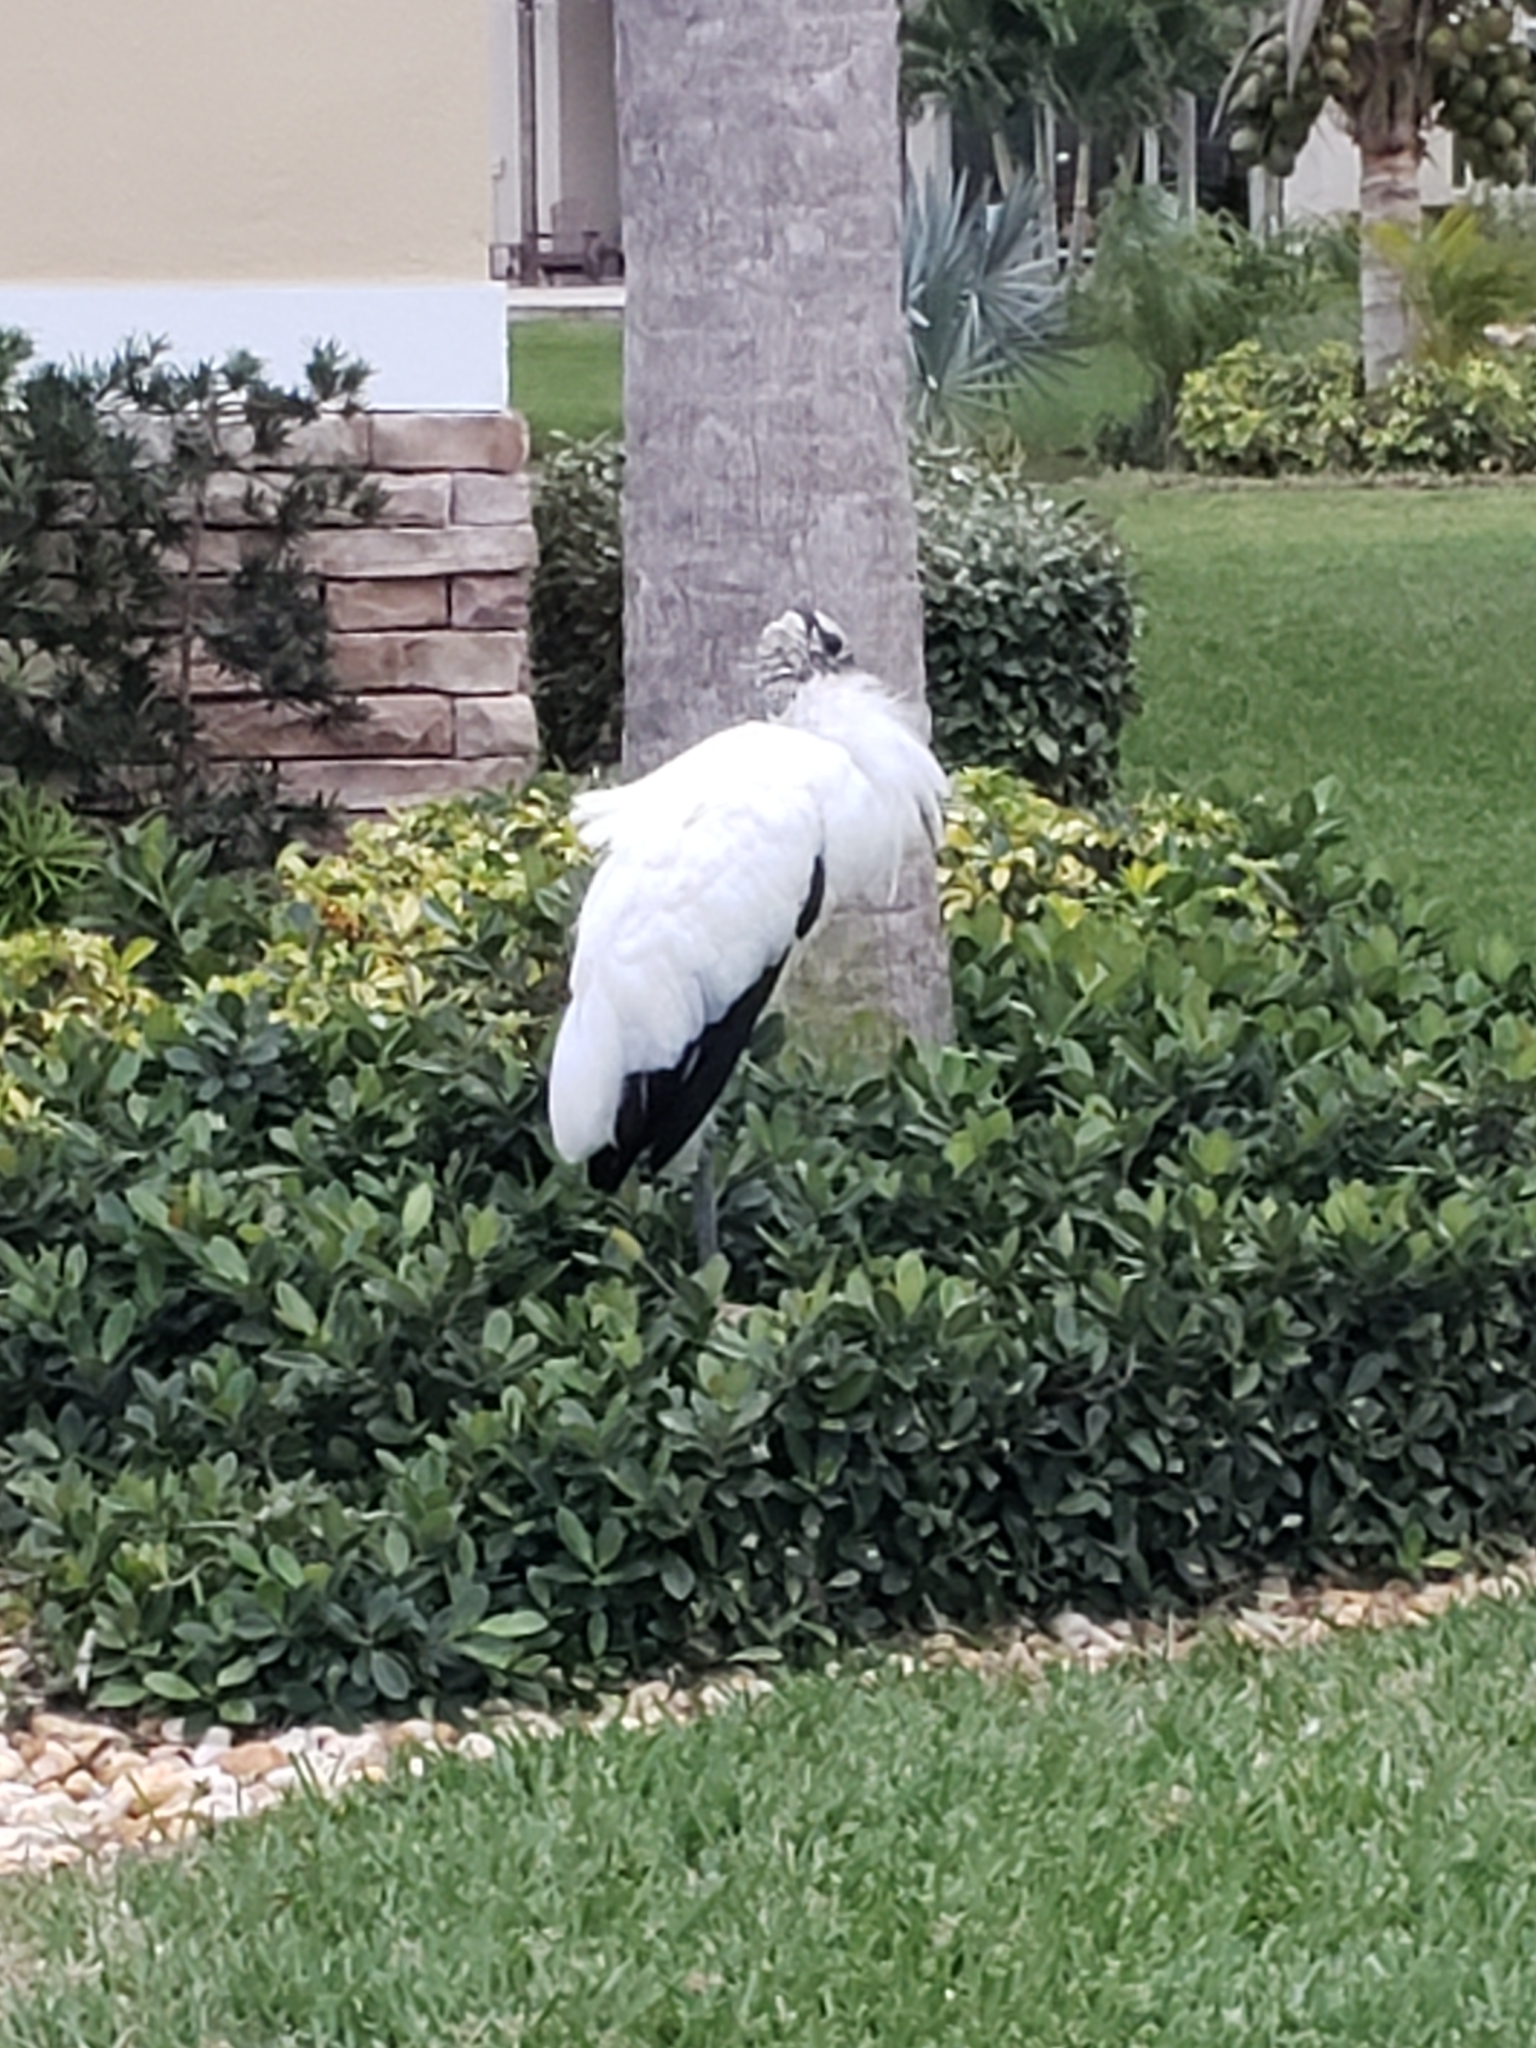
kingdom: Animalia
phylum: Chordata
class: Aves
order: Ciconiiformes
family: Ciconiidae
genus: Mycteria
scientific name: Mycteria americana
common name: Wood stork
